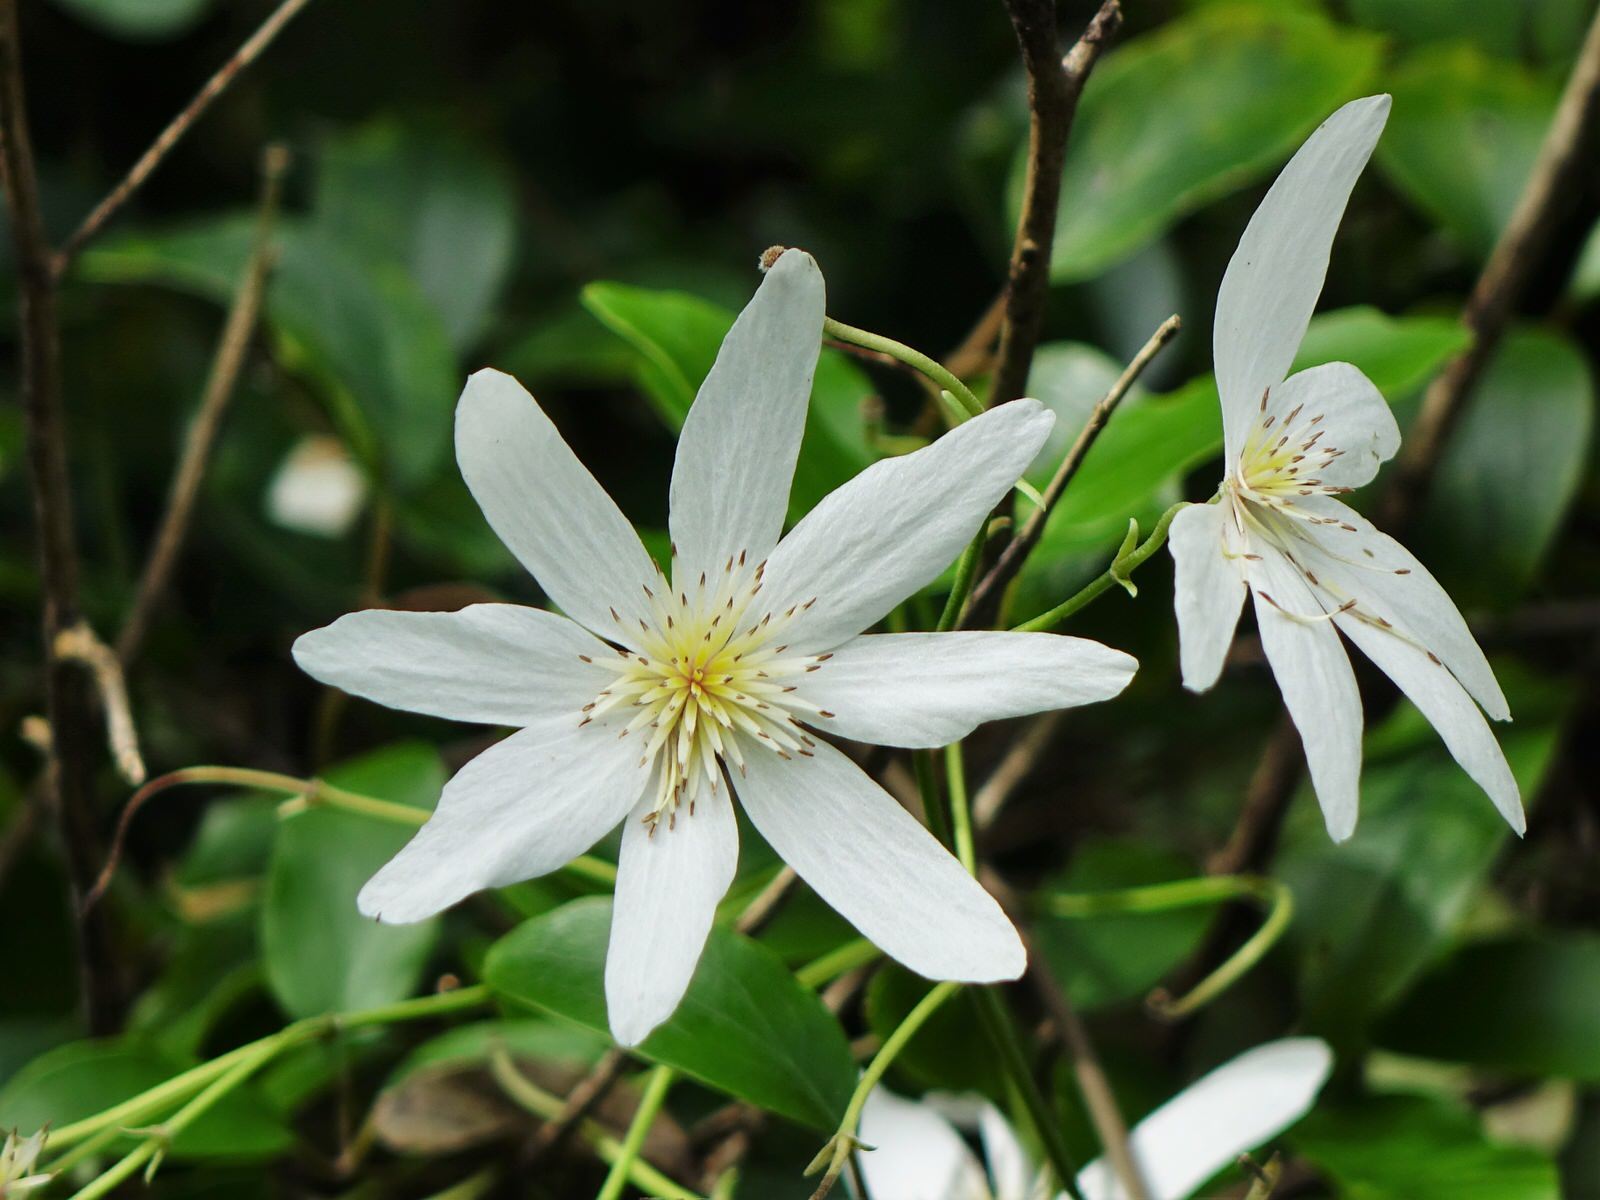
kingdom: Plantae
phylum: Tracheophyta
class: Magnoliopsida
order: Ranunculales
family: Ranunculaceae
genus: Clematis
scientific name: Clematis paniculata
